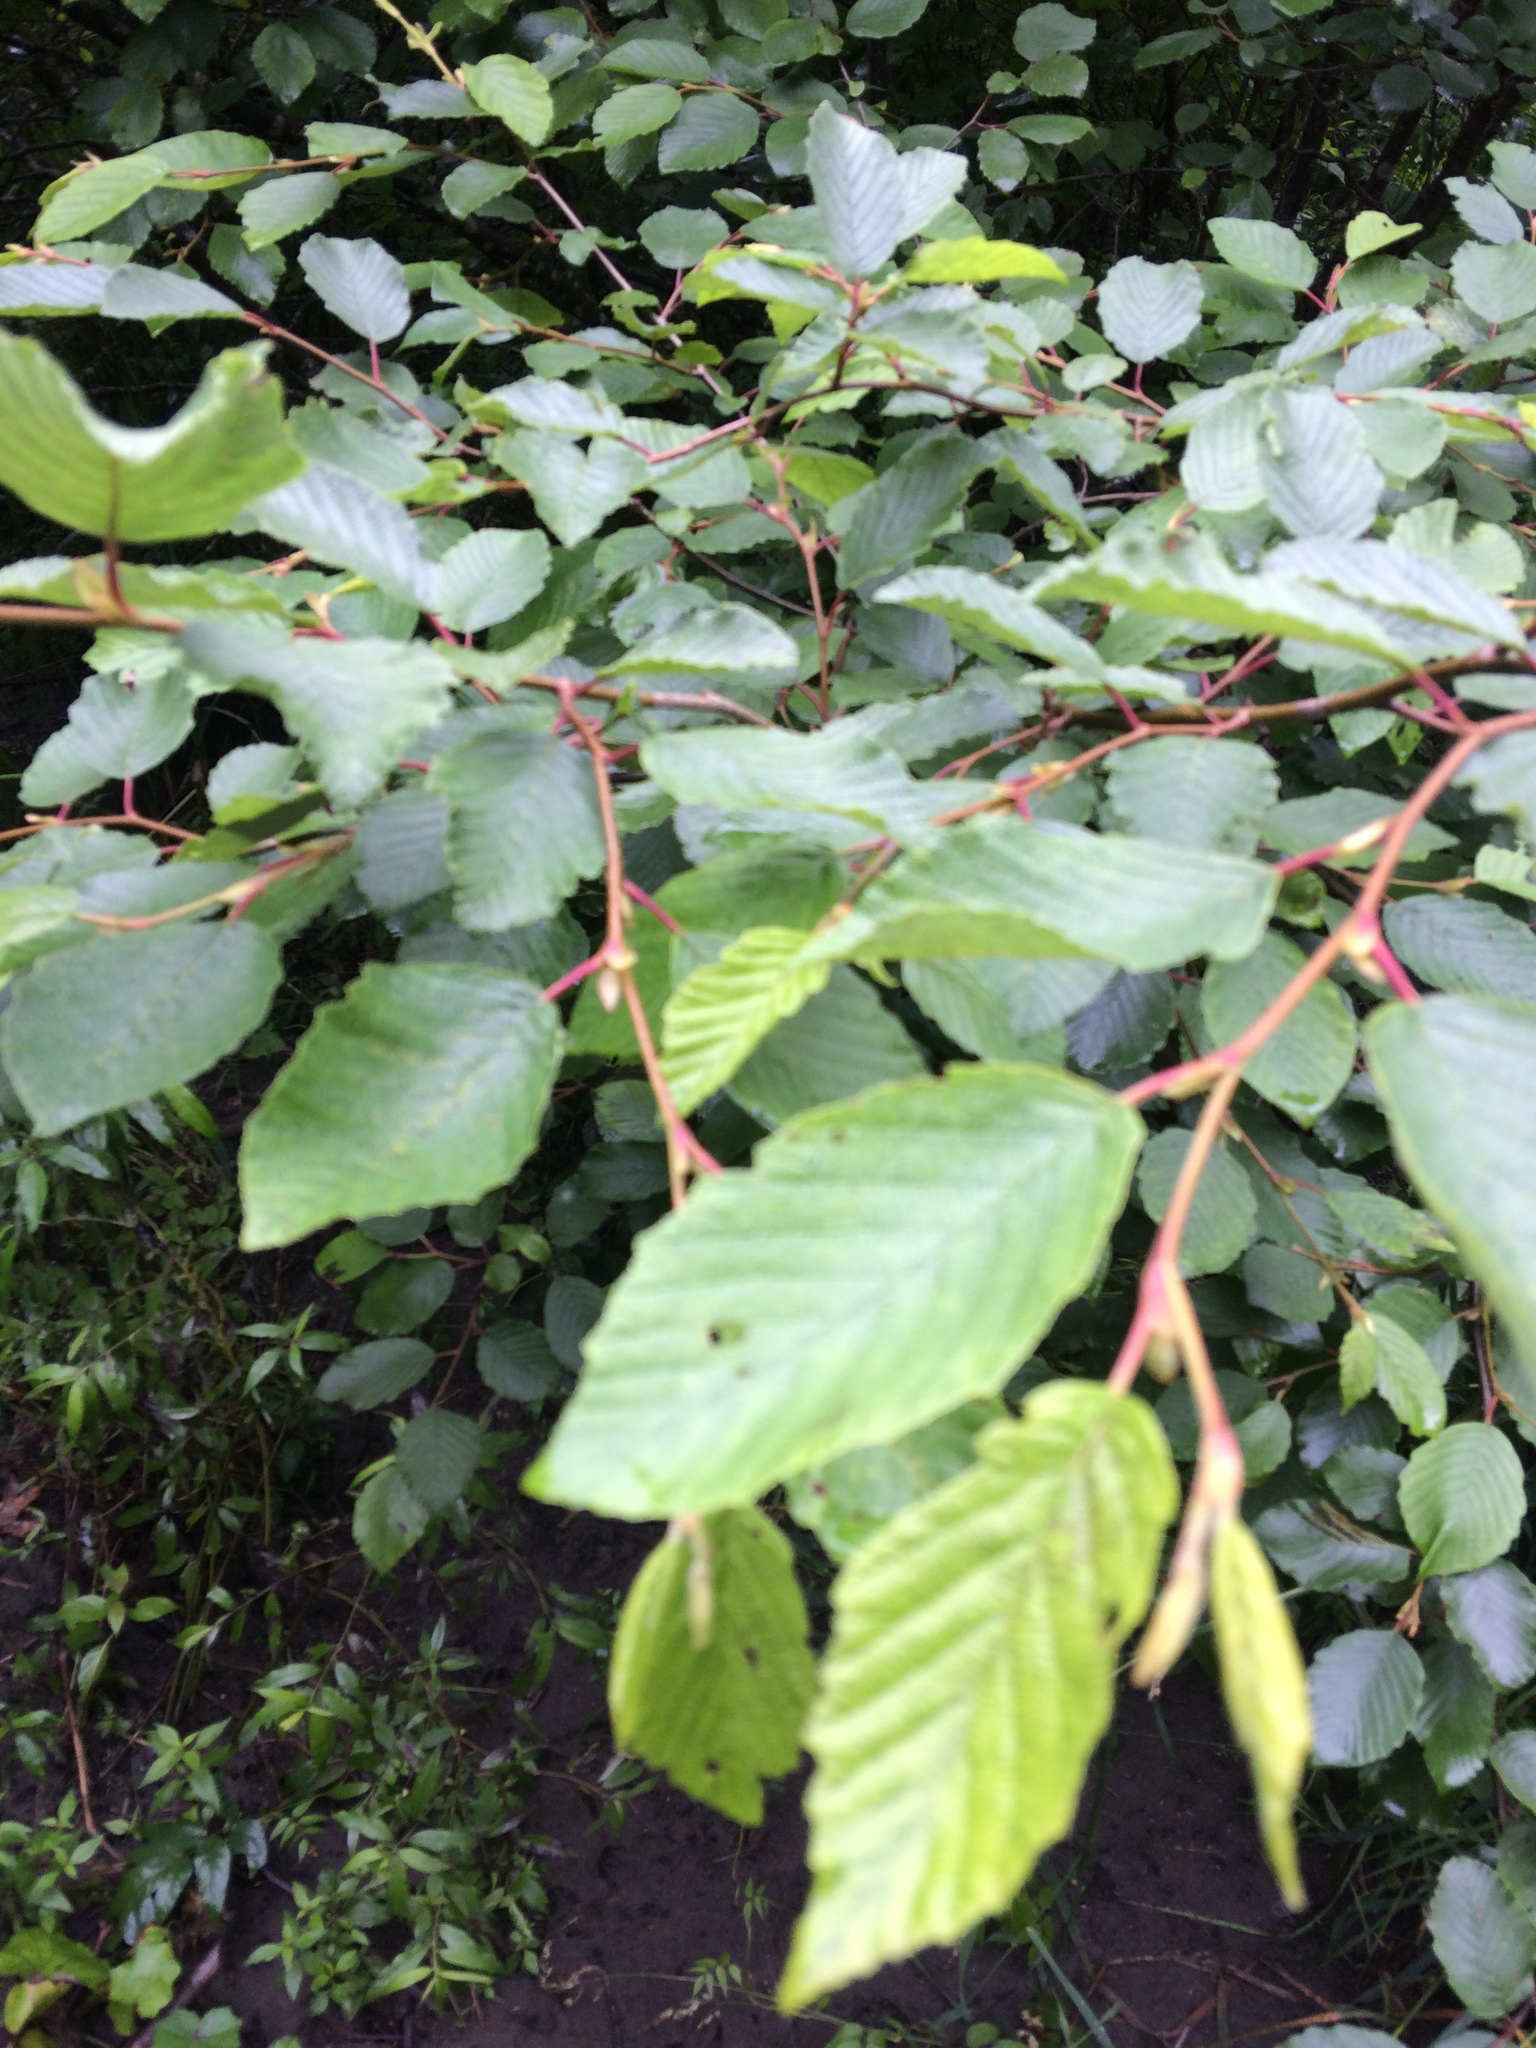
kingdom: Plantae
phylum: Tracheophyta
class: Magnoliopsida
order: Fagales
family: Betulaceae
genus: Alnus
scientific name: Alnus incana
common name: Grey alder
